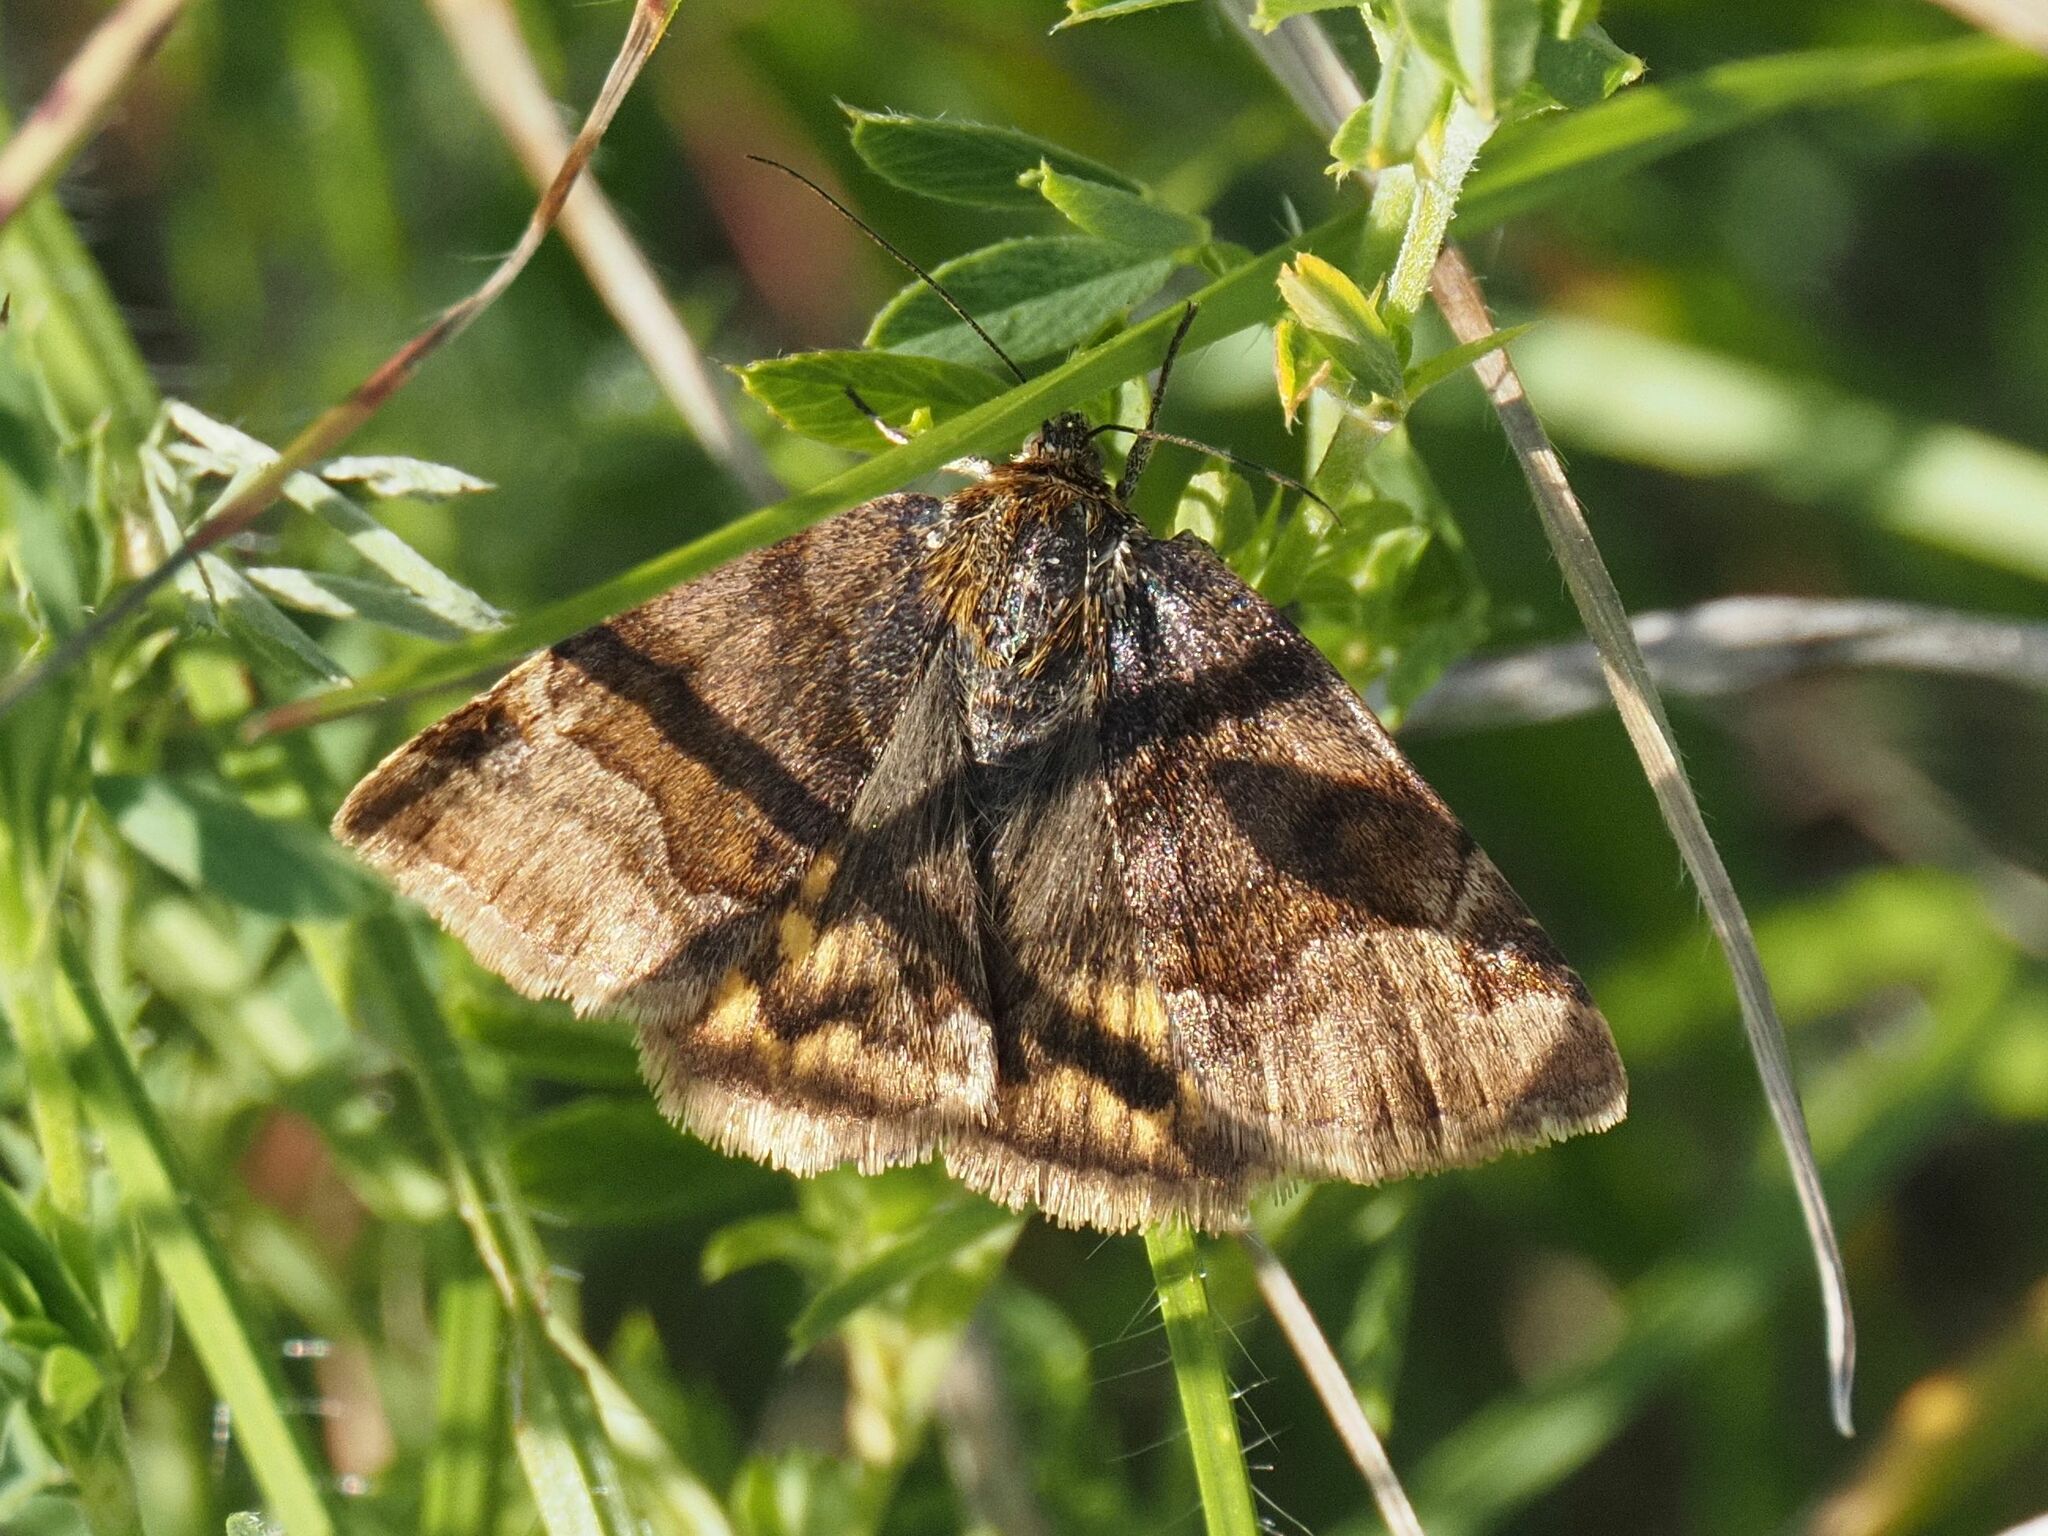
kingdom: Animalia
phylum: Arthropoda
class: Insecta
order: Lepidoptera
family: Erebidae
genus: Euclidia
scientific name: Euclidia glyphica
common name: Burnet companion
